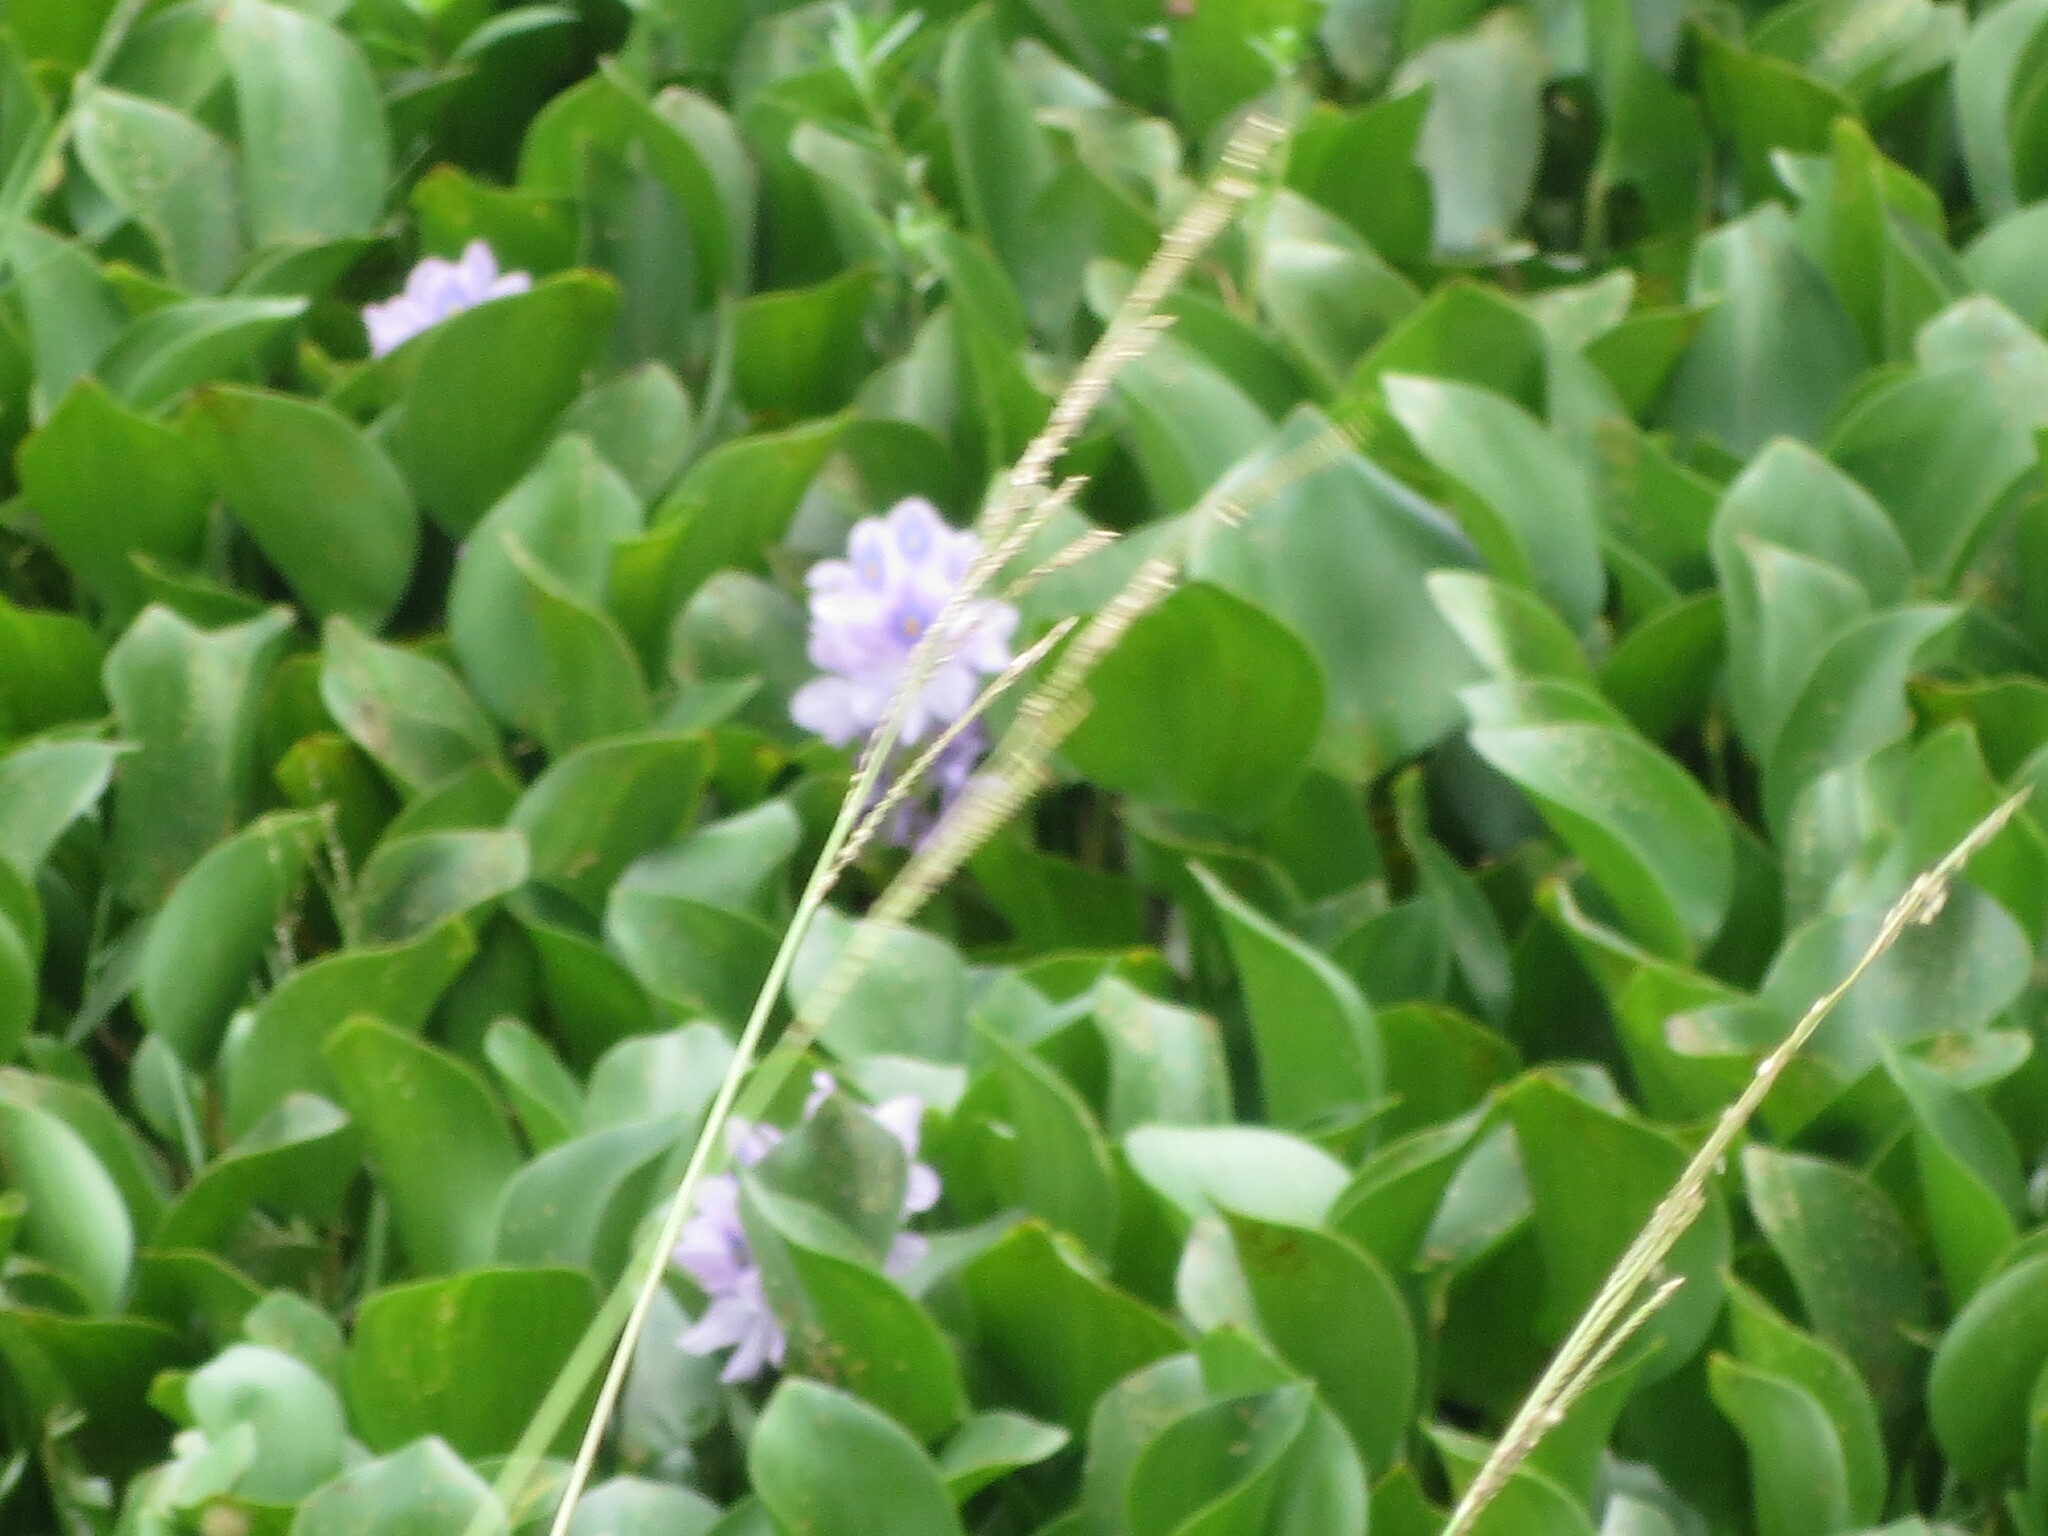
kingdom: Plantae
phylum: Tracheophyta
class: Liliopsida
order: Commelinales
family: Pontederiaceae
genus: Pontederia
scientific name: Pontederia crassipes
